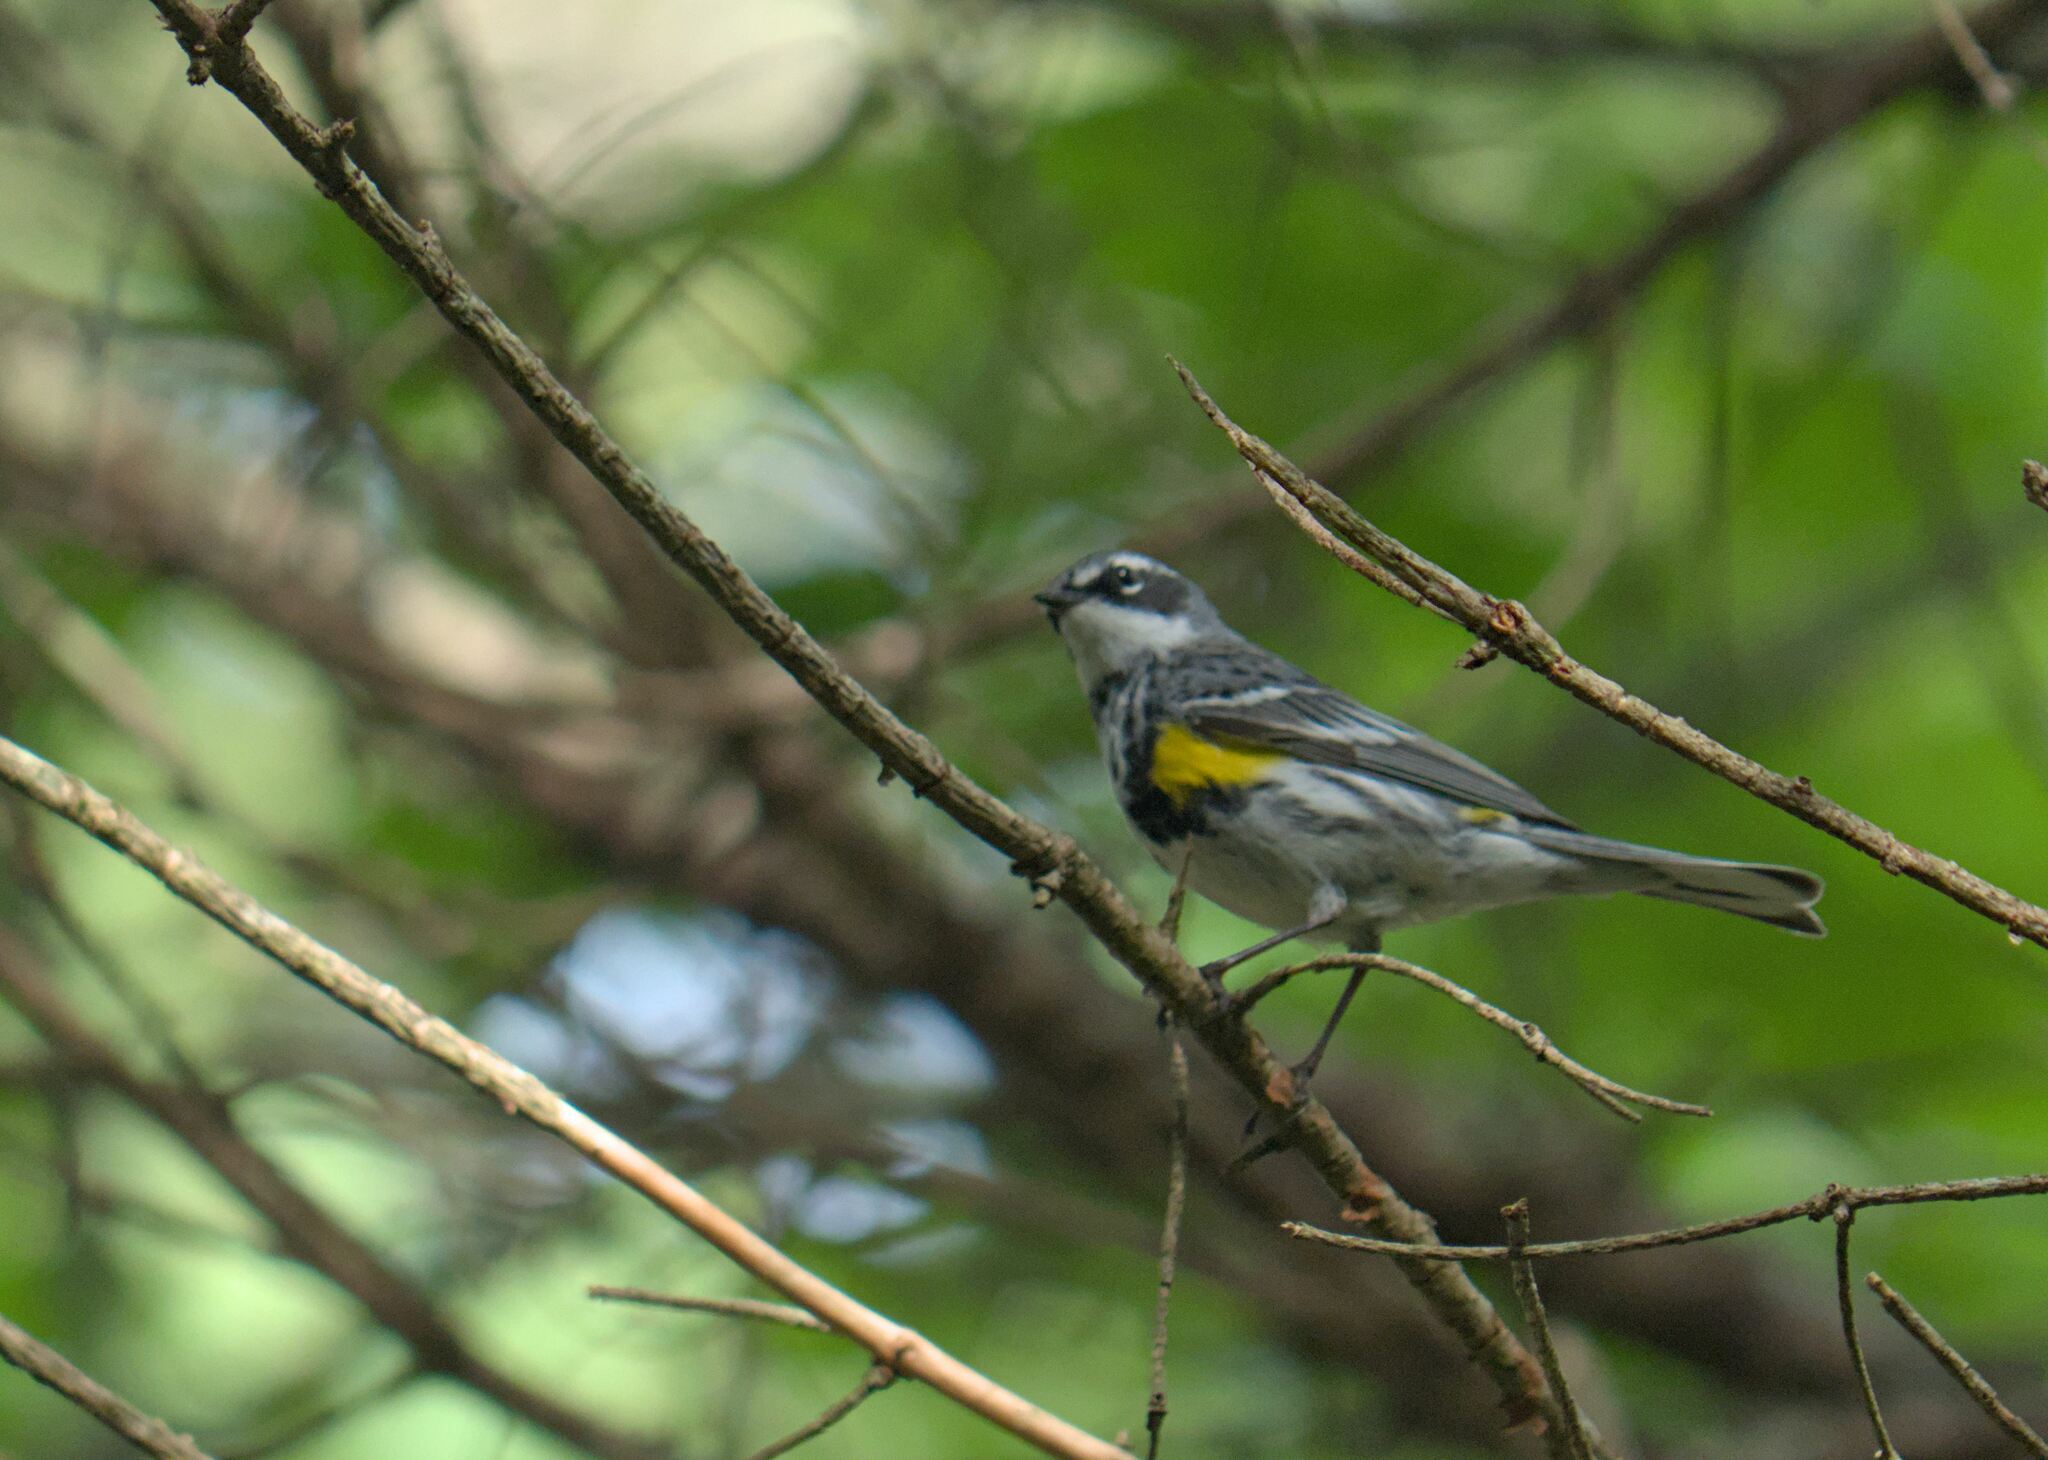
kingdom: Animalia
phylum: Chordata
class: Aves
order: Passeriformes
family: Parulidae
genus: Setophaga
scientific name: Setophaga coronata
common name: Myrtle warbler
